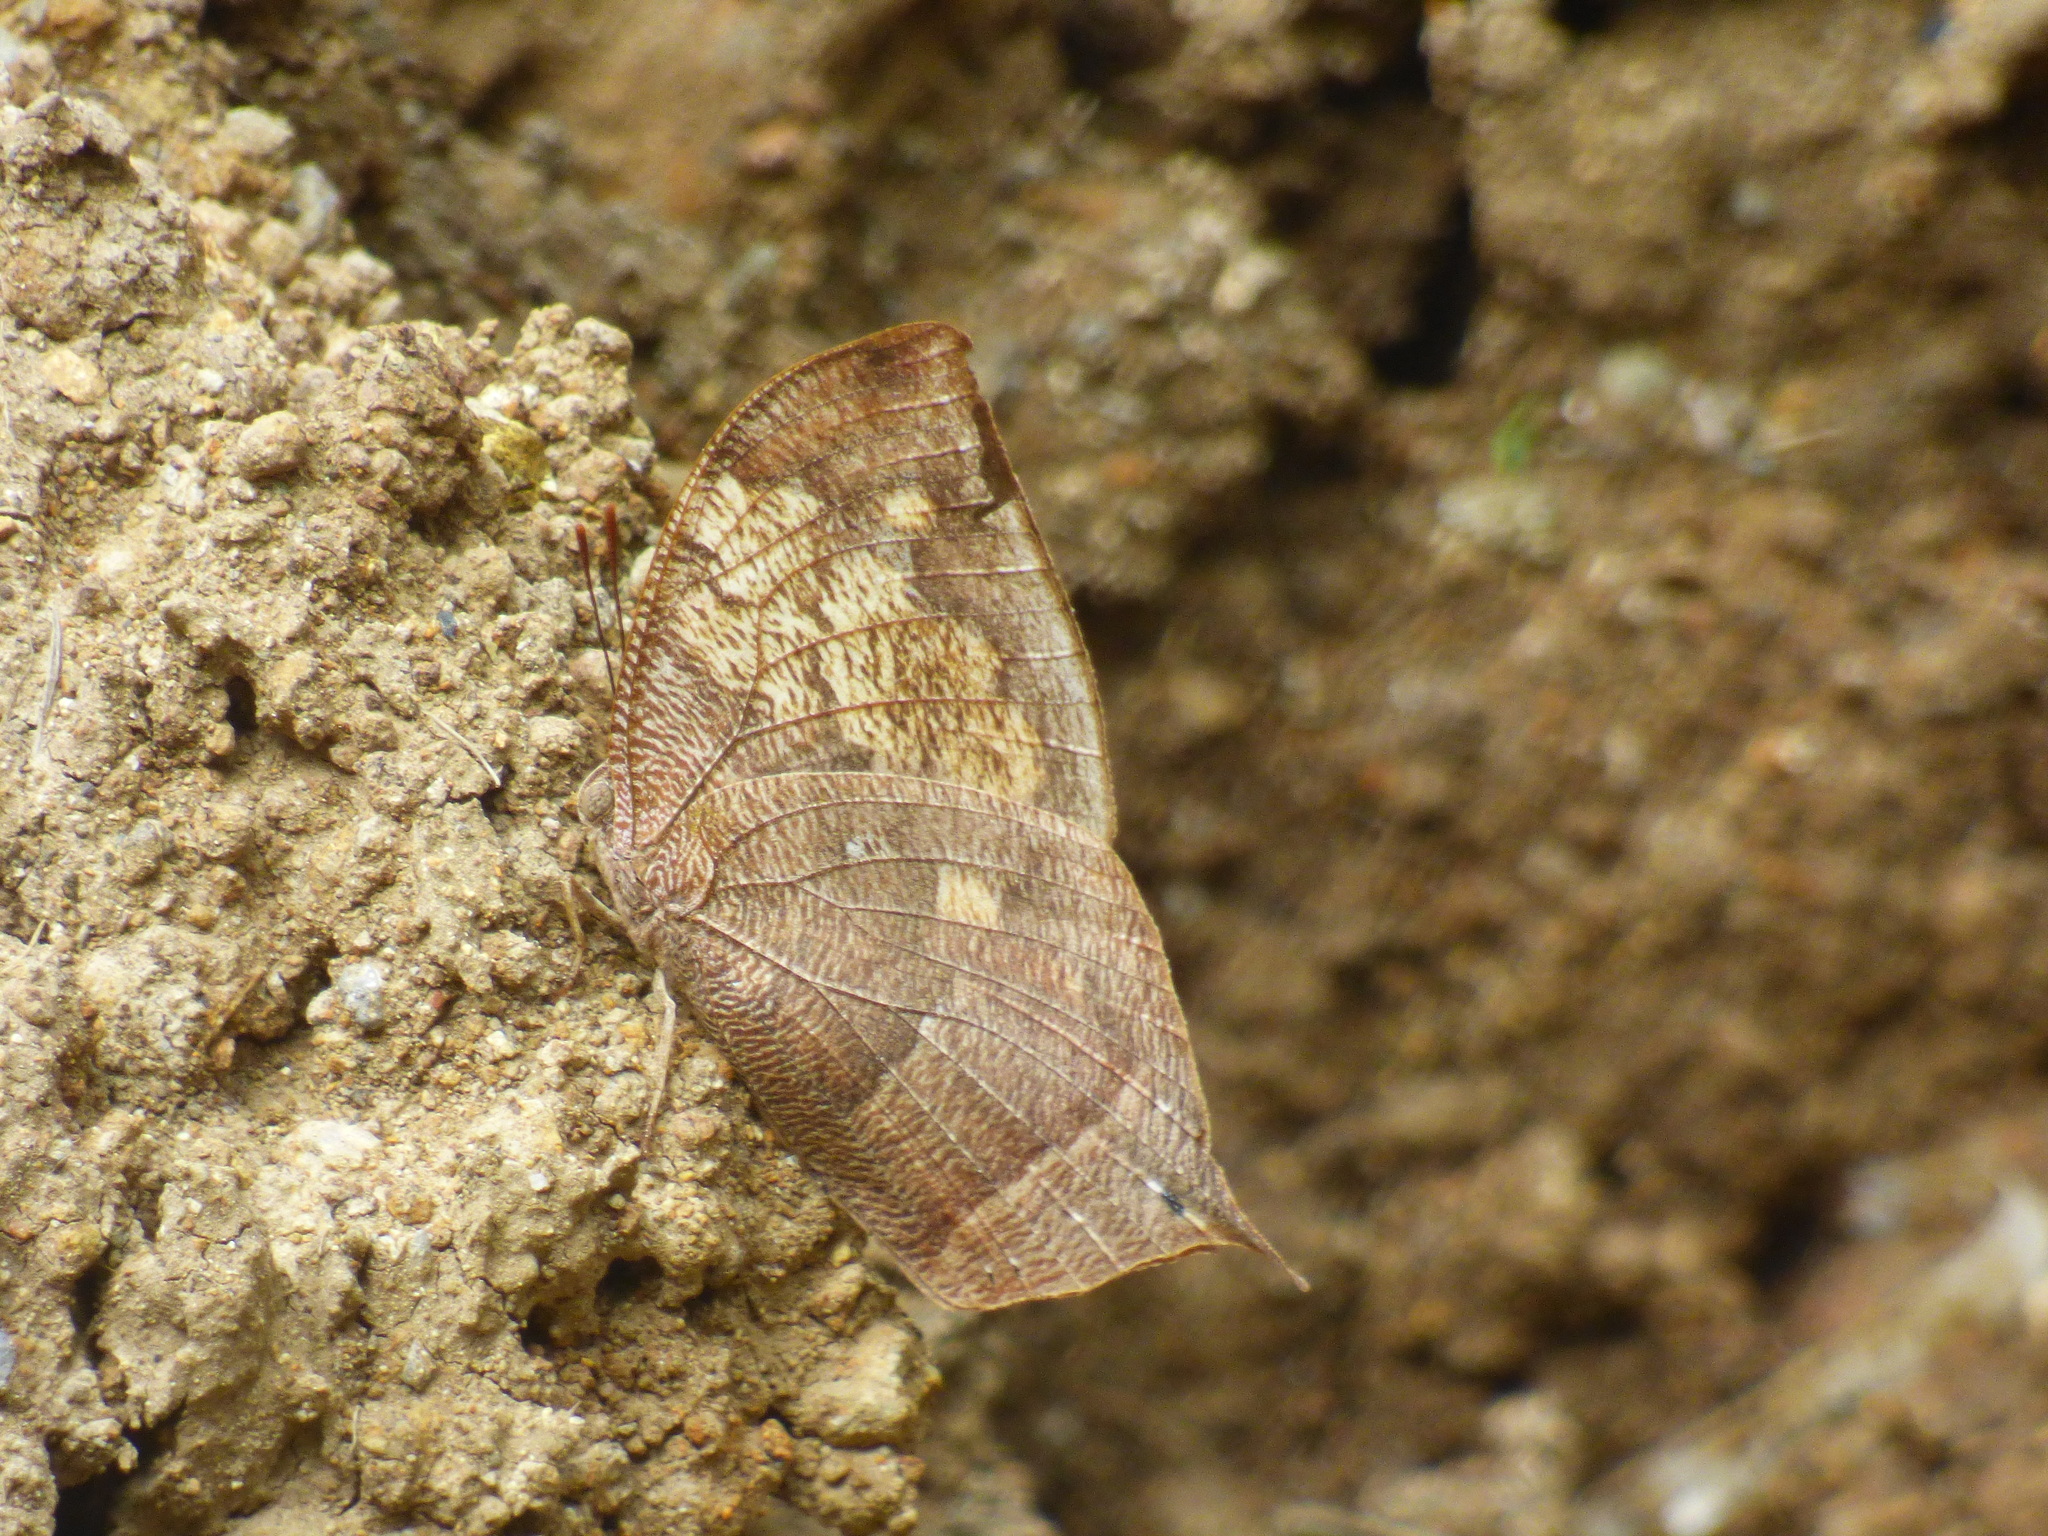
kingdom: Animalia
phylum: Arthropoda
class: Insecta
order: Lepidoptera
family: Nymphalidae
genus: Fountainea
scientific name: Fountainea
